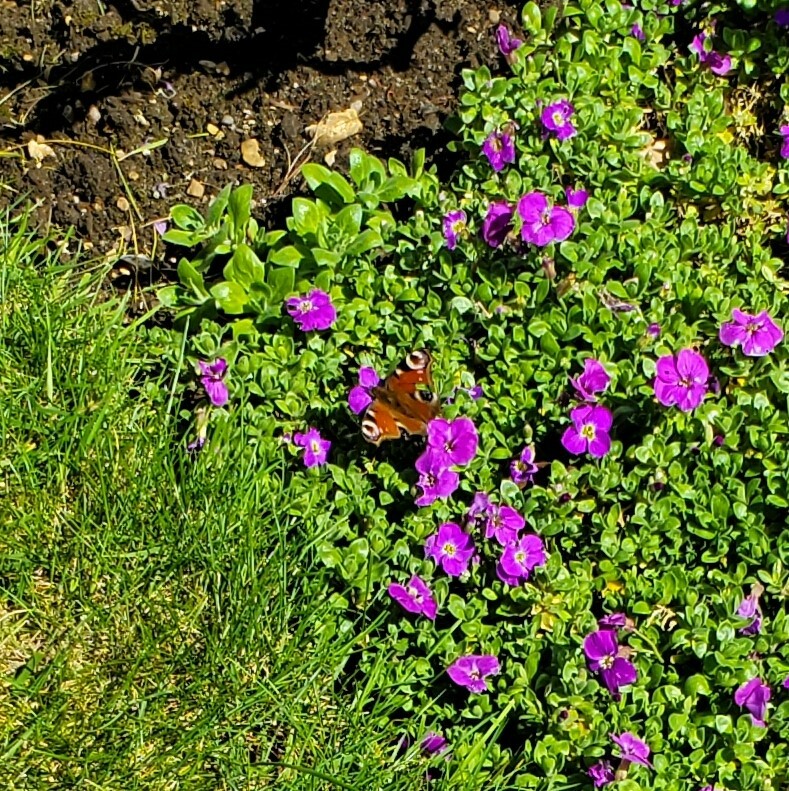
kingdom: Animalia
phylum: Arthropoda
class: Insecta
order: Lepidoptera
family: Nymphalidae
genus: Aglais
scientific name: Aglais io
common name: Peacock
